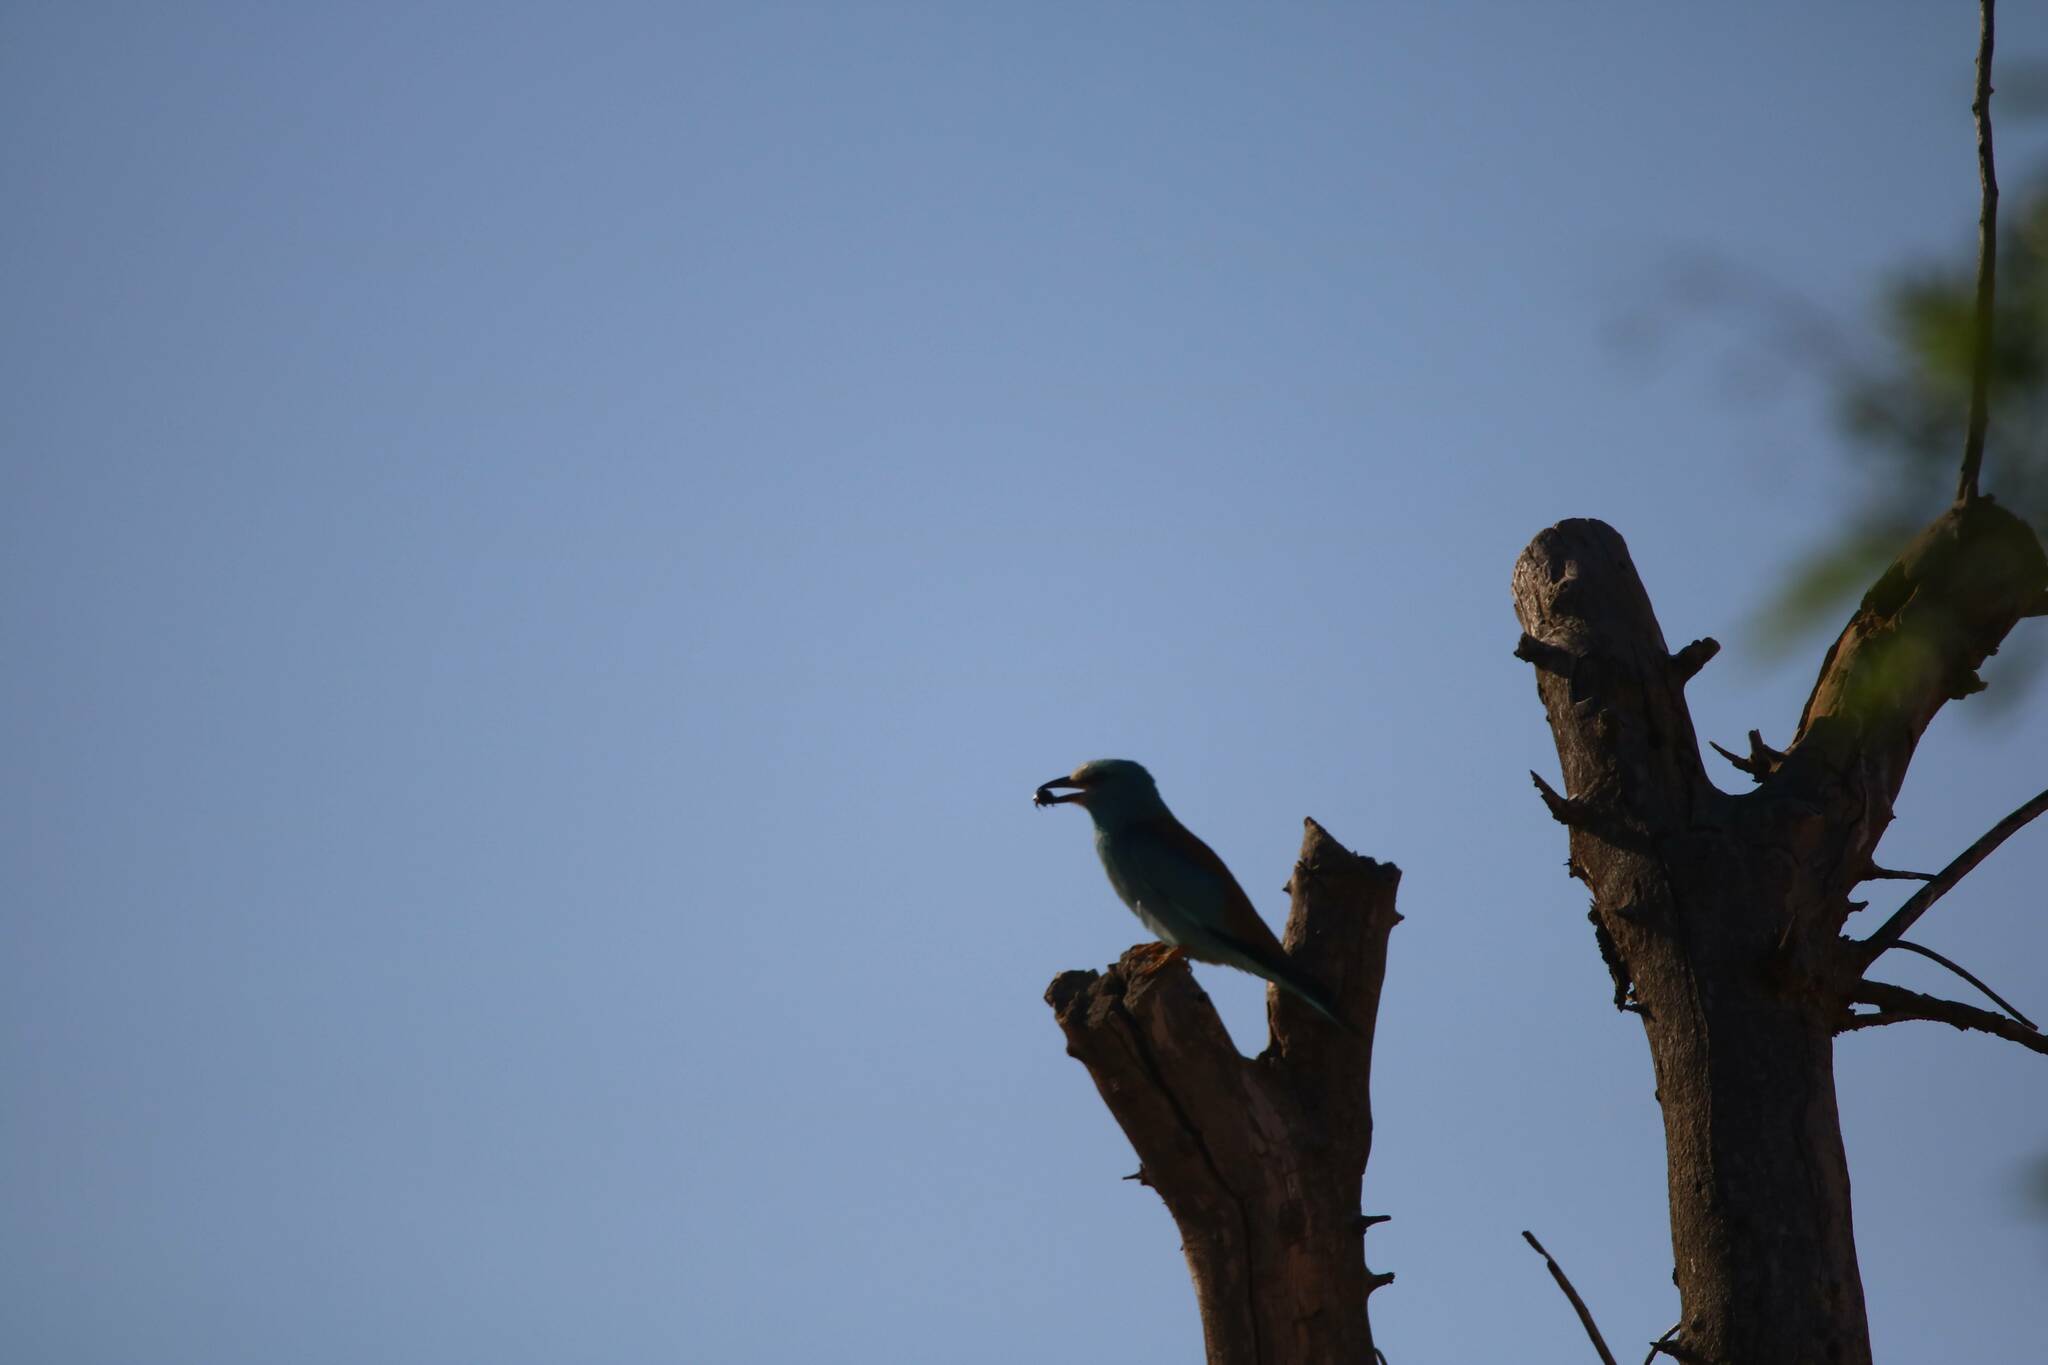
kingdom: Animalia
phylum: Chordata
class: Aves
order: Coraciiformes
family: Coraciidae
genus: Coracias
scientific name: Coracias garrulus
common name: European roller
